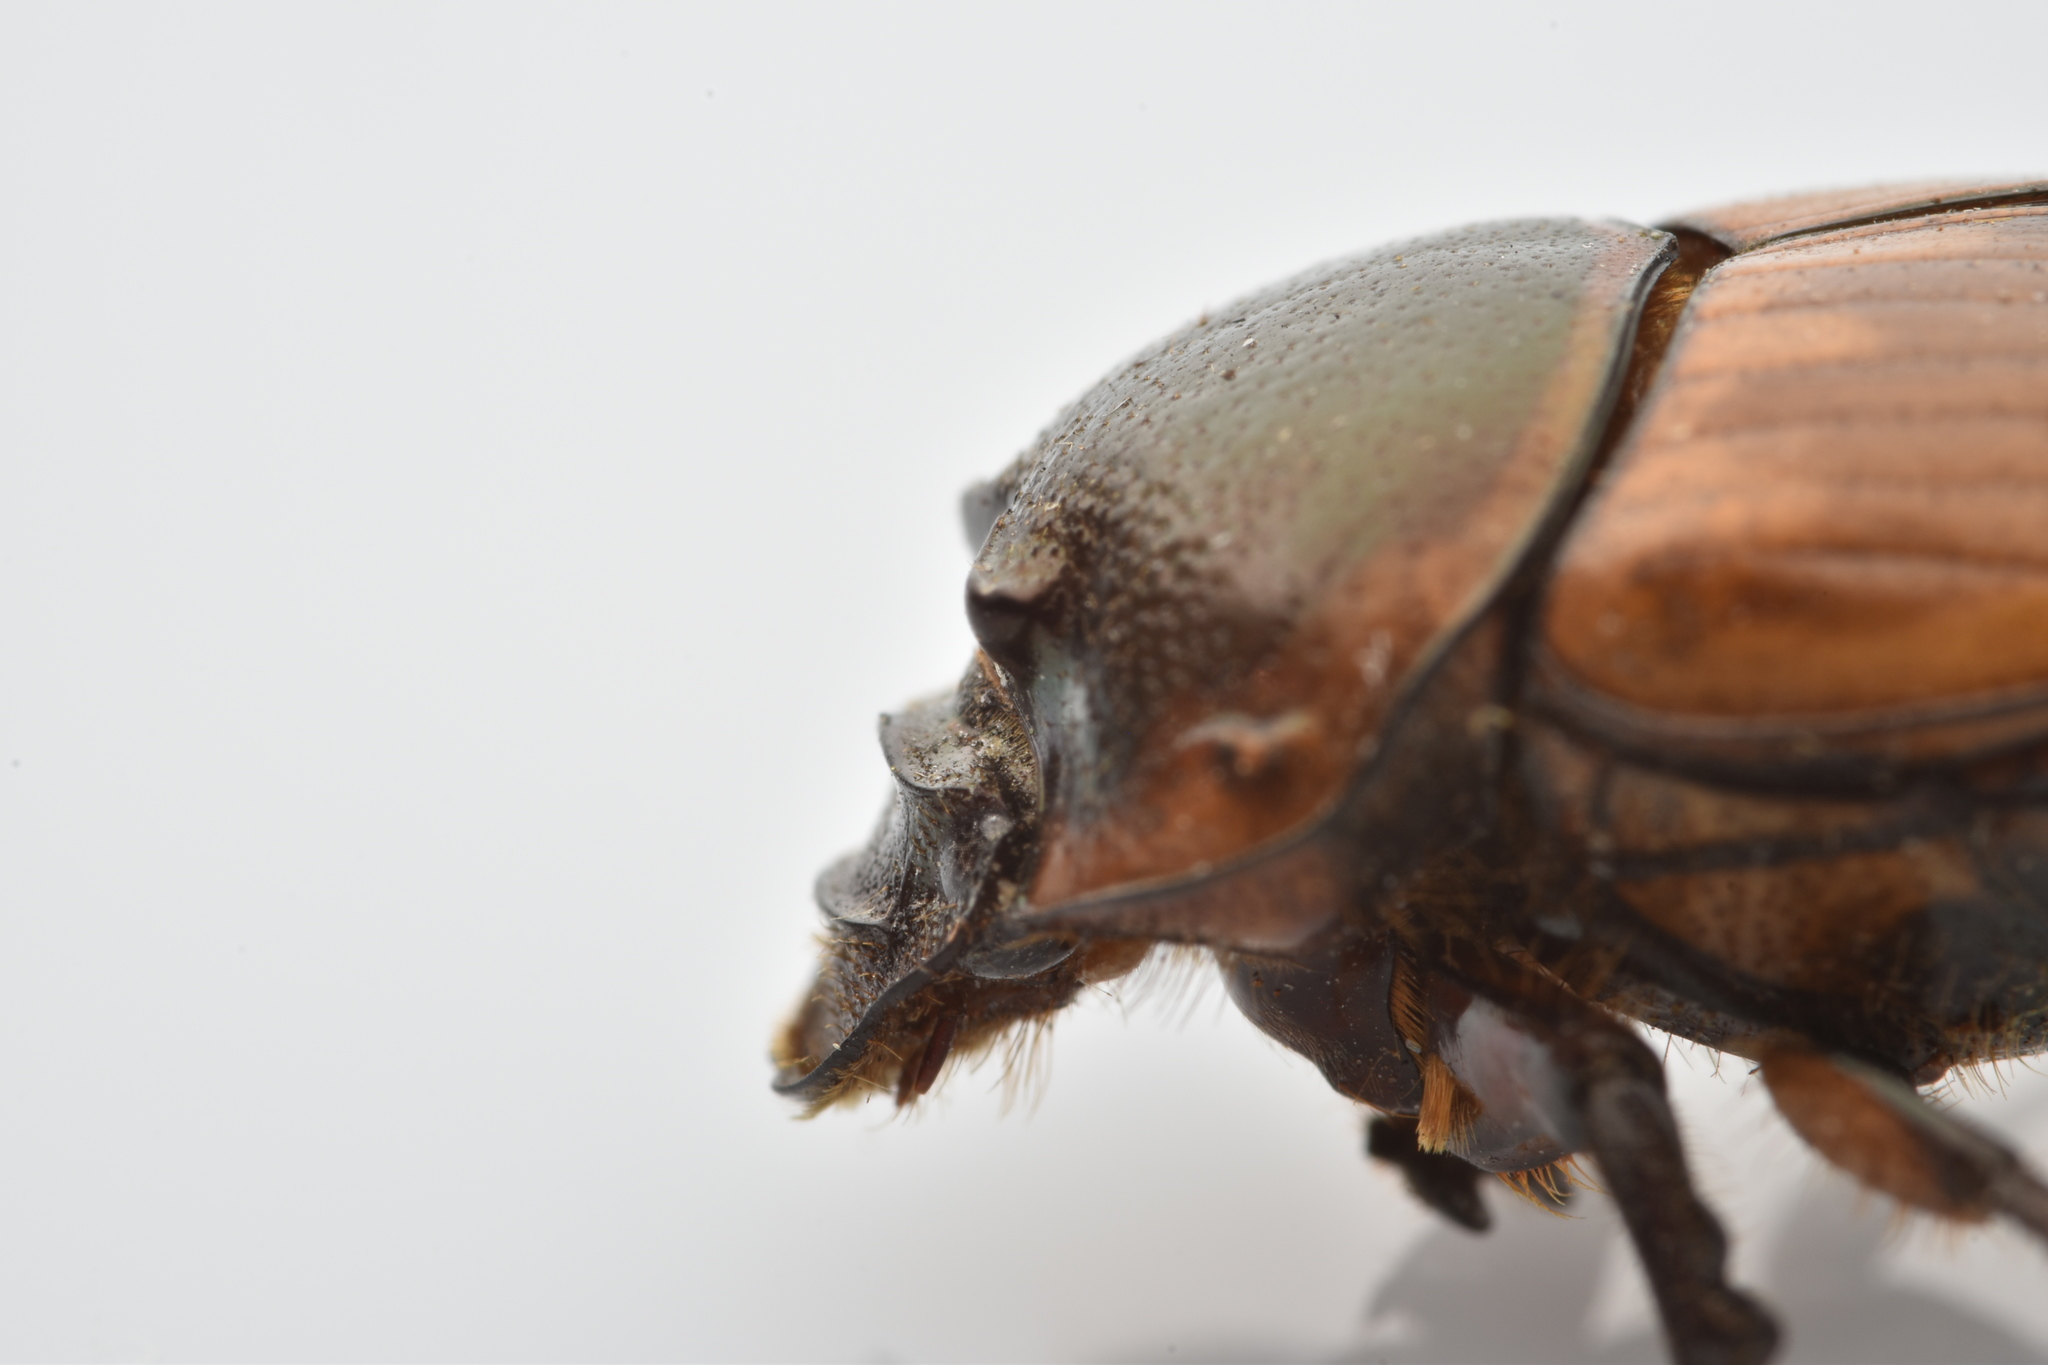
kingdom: Animalia
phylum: Arthropoda
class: Insecta
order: Coleoptera
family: Scarabaeidae
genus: Digitonthophagus
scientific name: Digitonthophagus gazella
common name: Brown dung beetle
